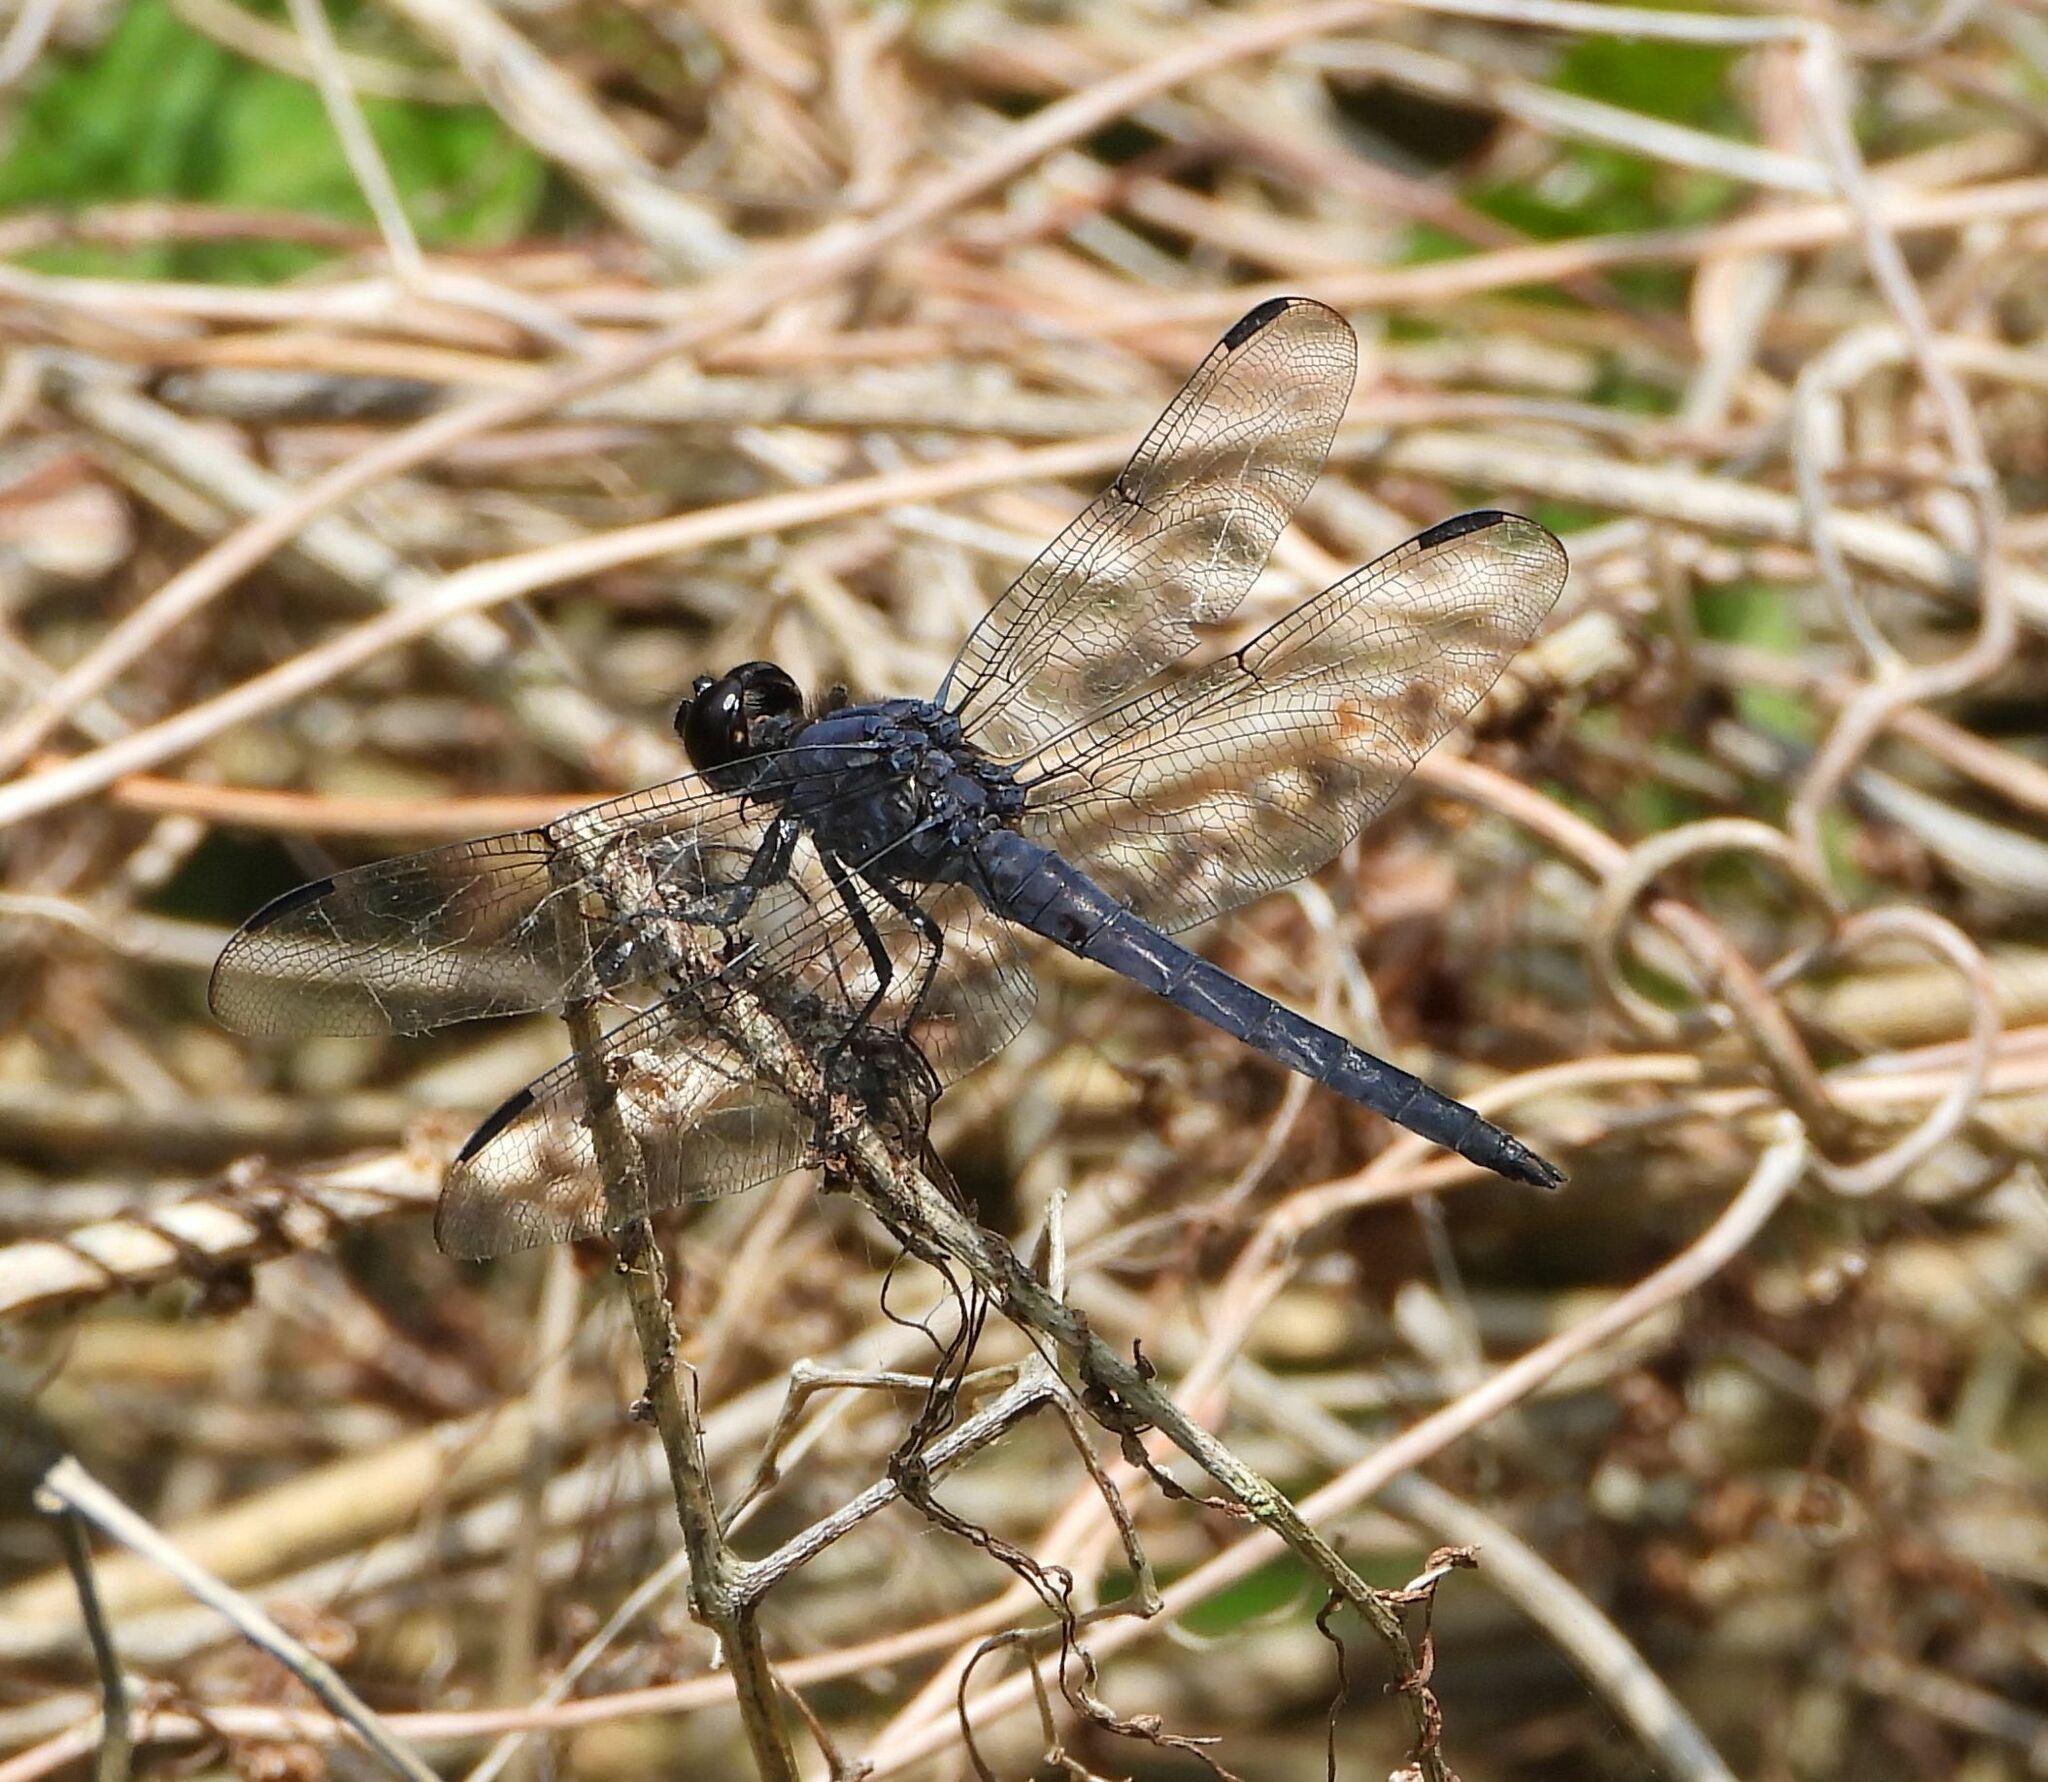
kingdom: Animalia
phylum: Arthropoda
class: Insecta
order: Odonata
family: Libellulidae
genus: Libellula
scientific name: Libellula incesta
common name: Slaty skimmer
